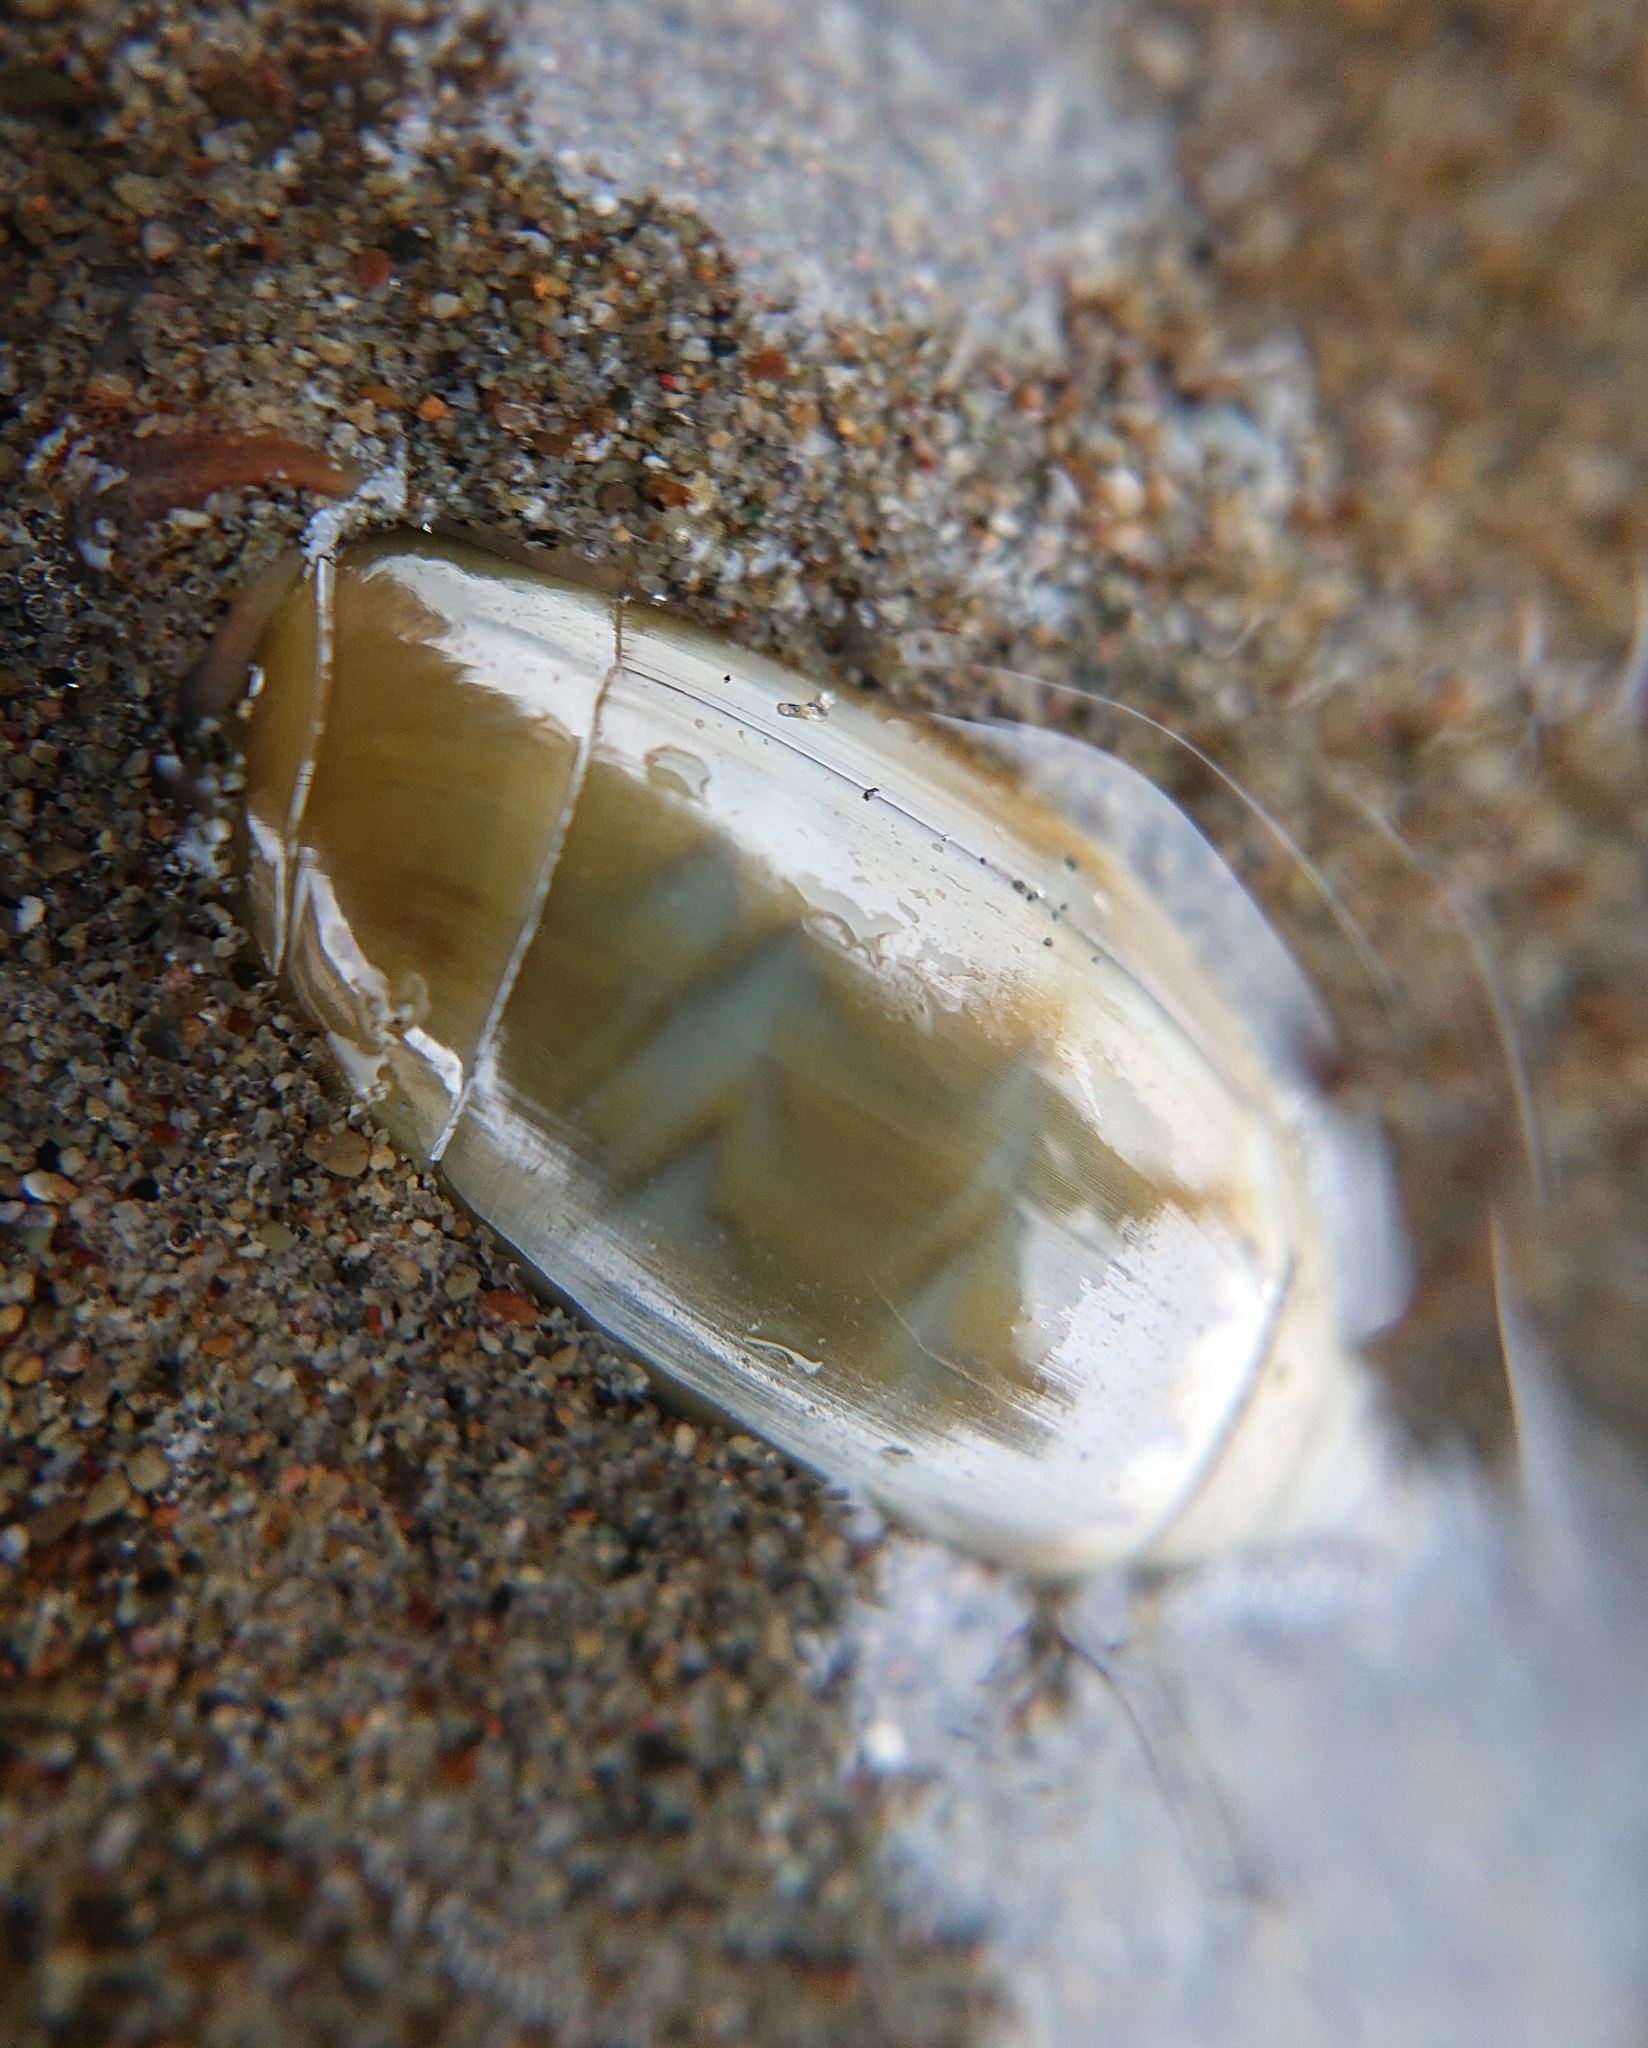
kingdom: Animalia
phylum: Mollusca
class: Gastropoda
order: Neogastropoda
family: Olividae
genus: Oliva
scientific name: Oliva undatella
